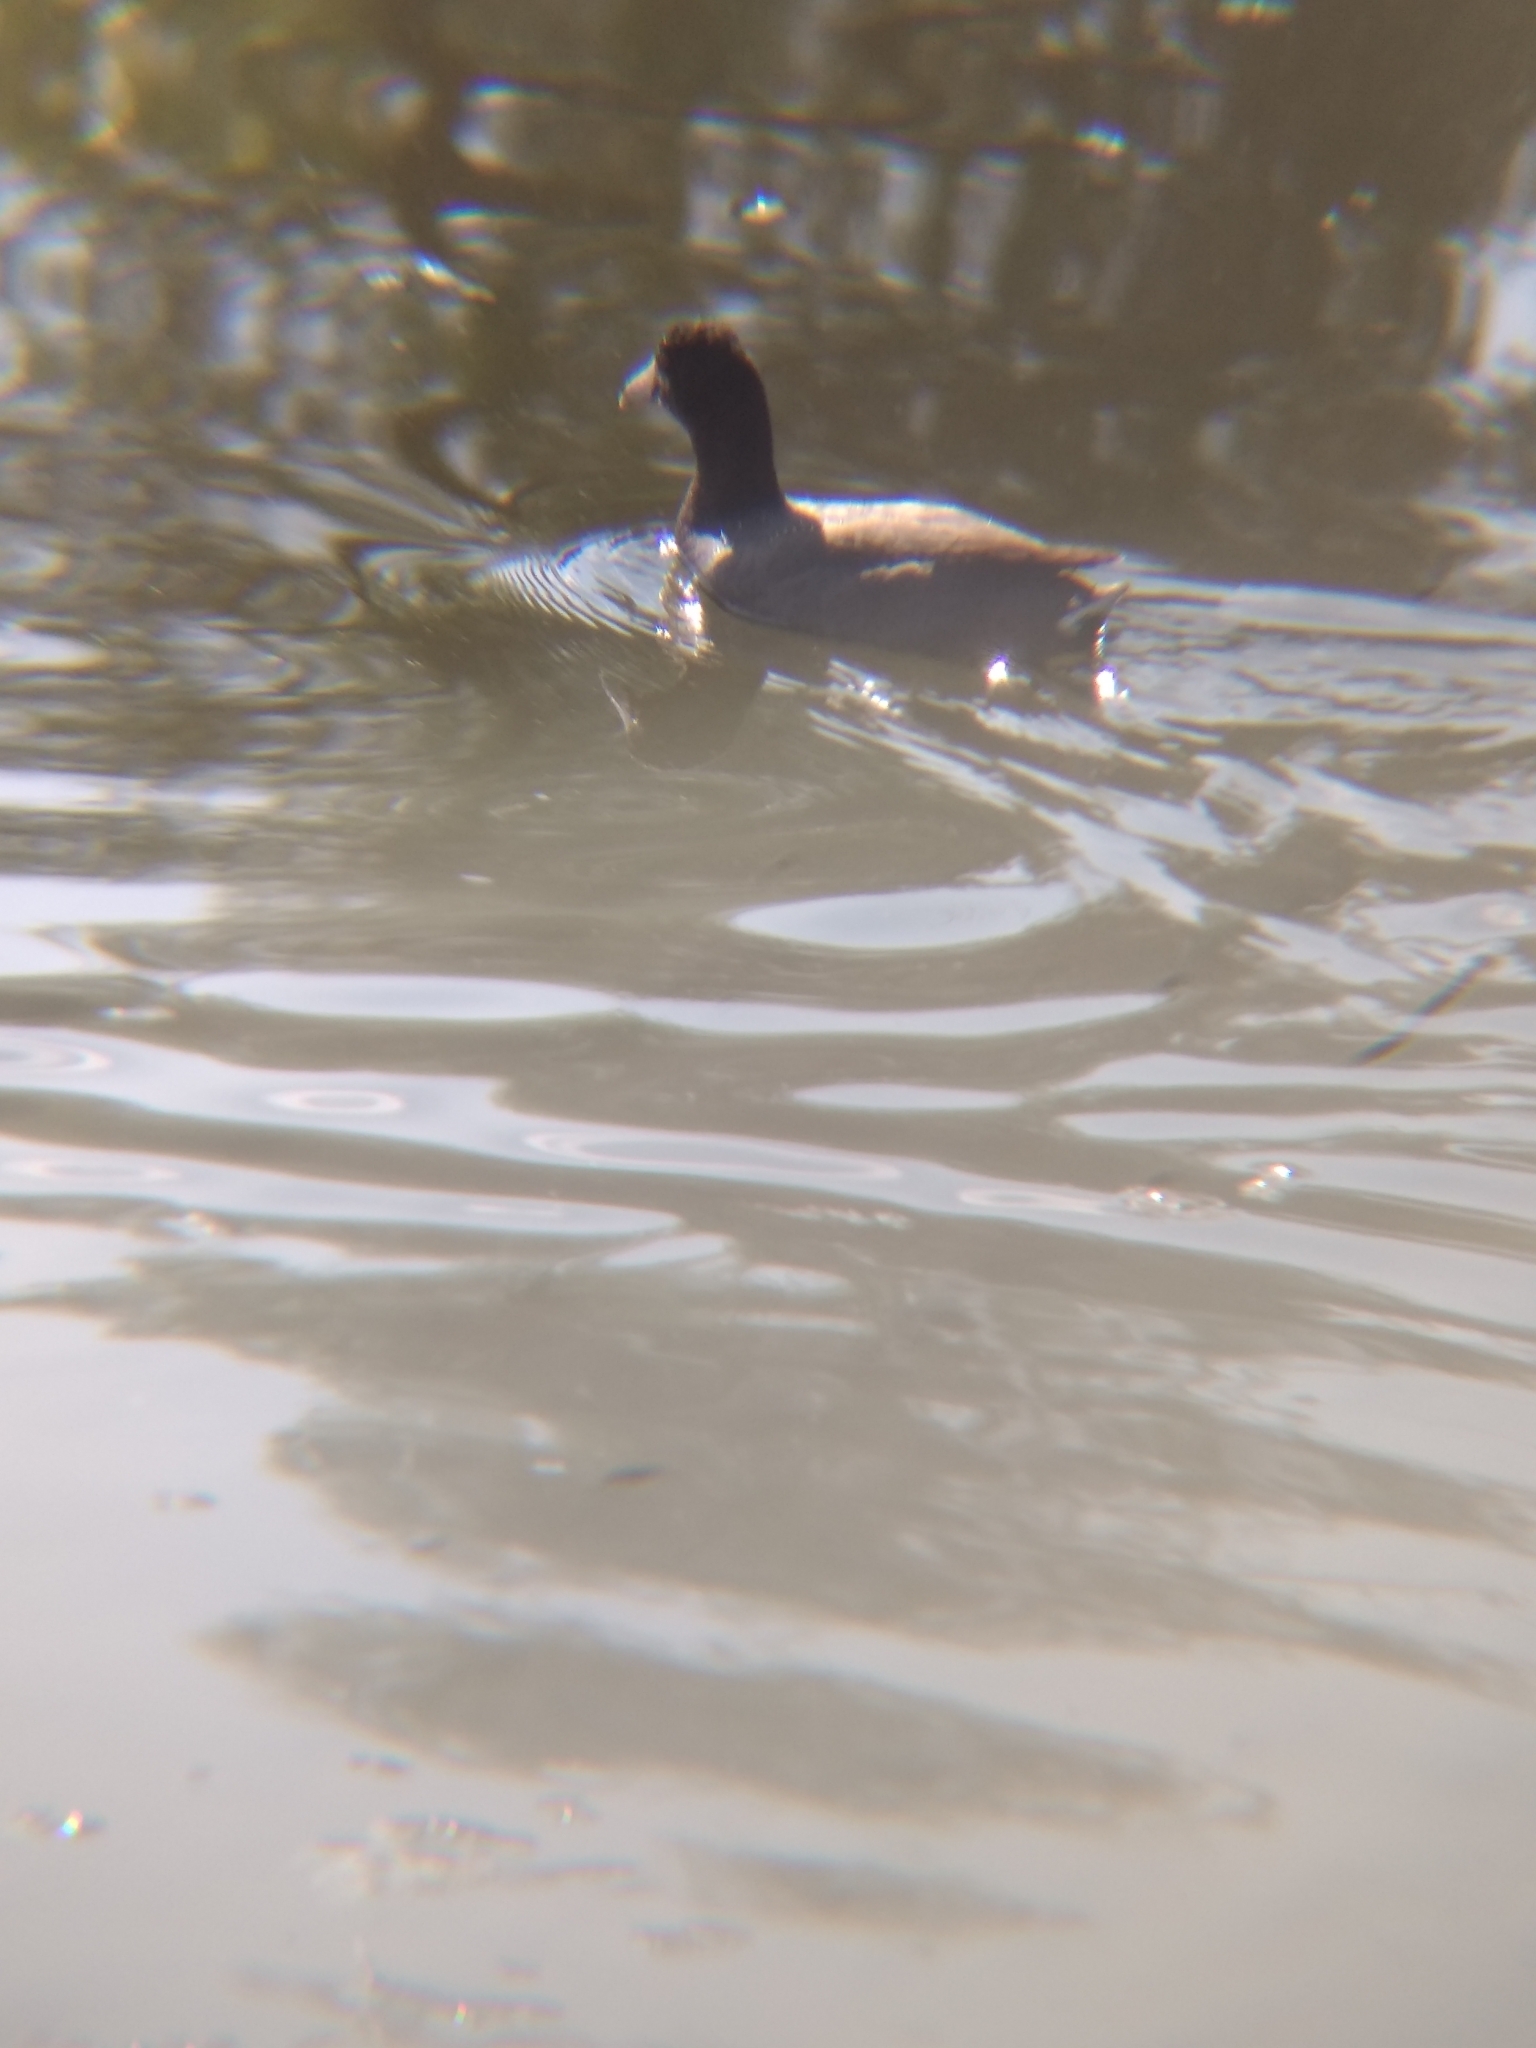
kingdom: Animalia
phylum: Chordata
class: Aves
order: Gruiformes
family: Rallidae
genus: Fulica
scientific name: Fulica americana
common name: American coot
